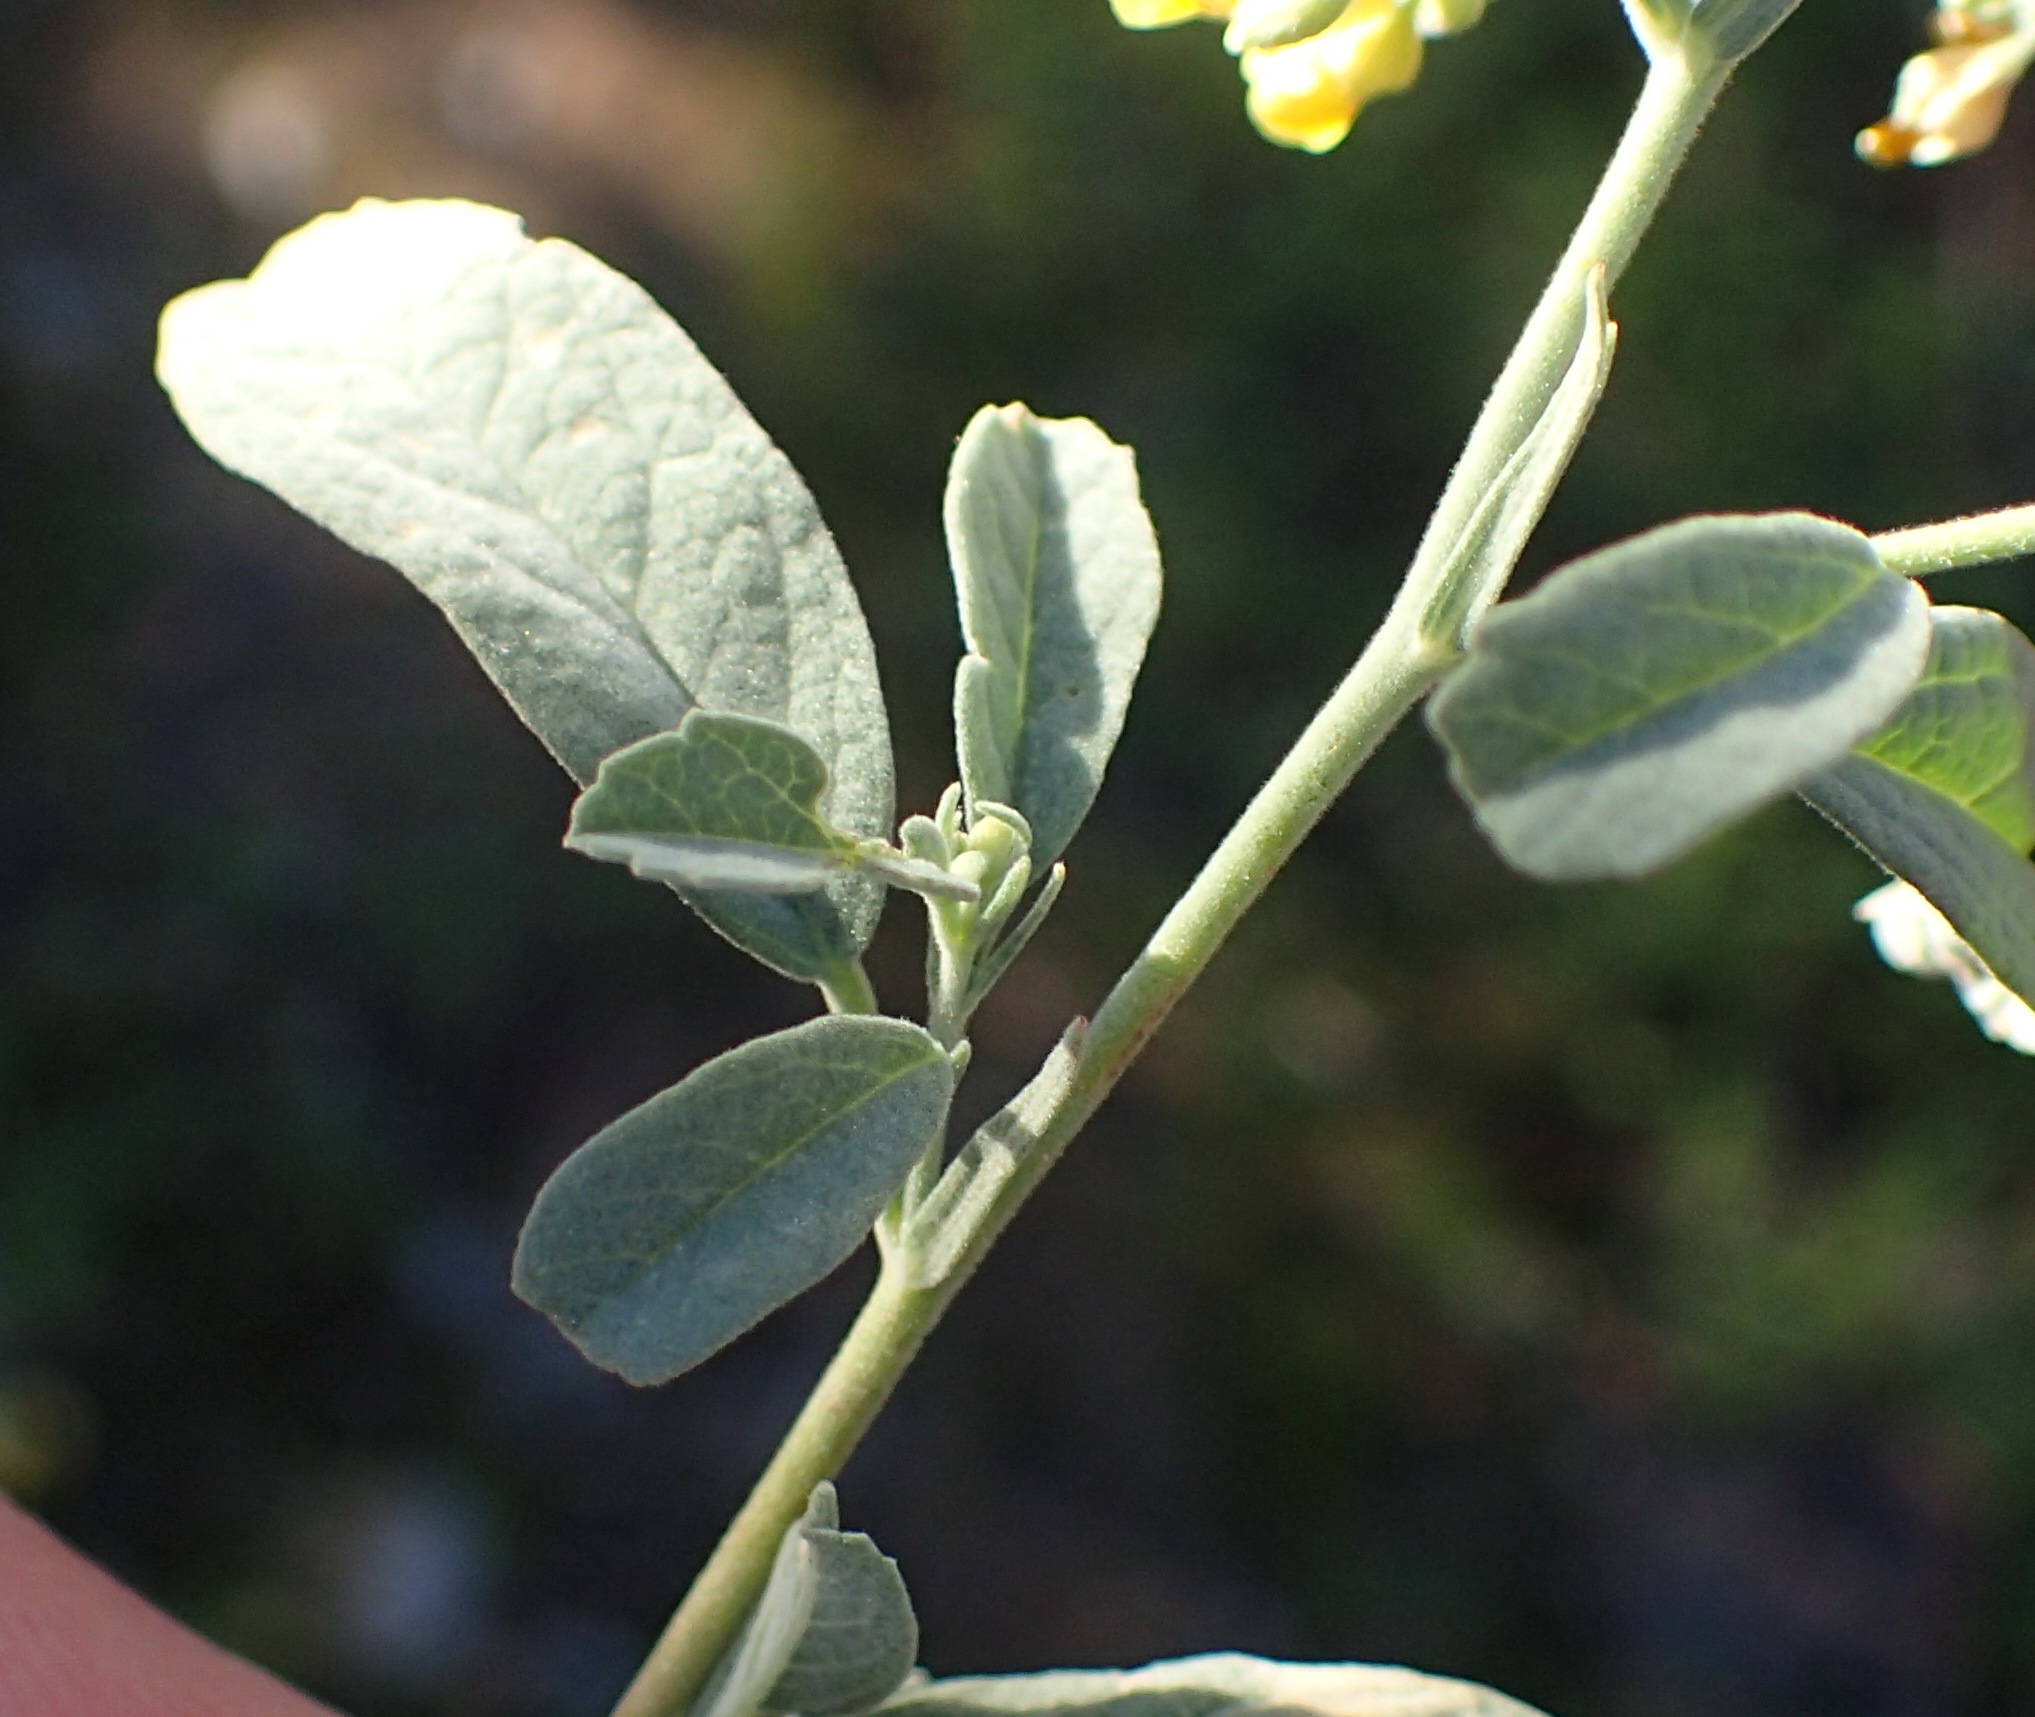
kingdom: Plantae
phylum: Tracheophyta
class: Magnoliopsida
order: Malvales
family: Malvaceae
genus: Hermannia
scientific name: Hermannia holosericea
